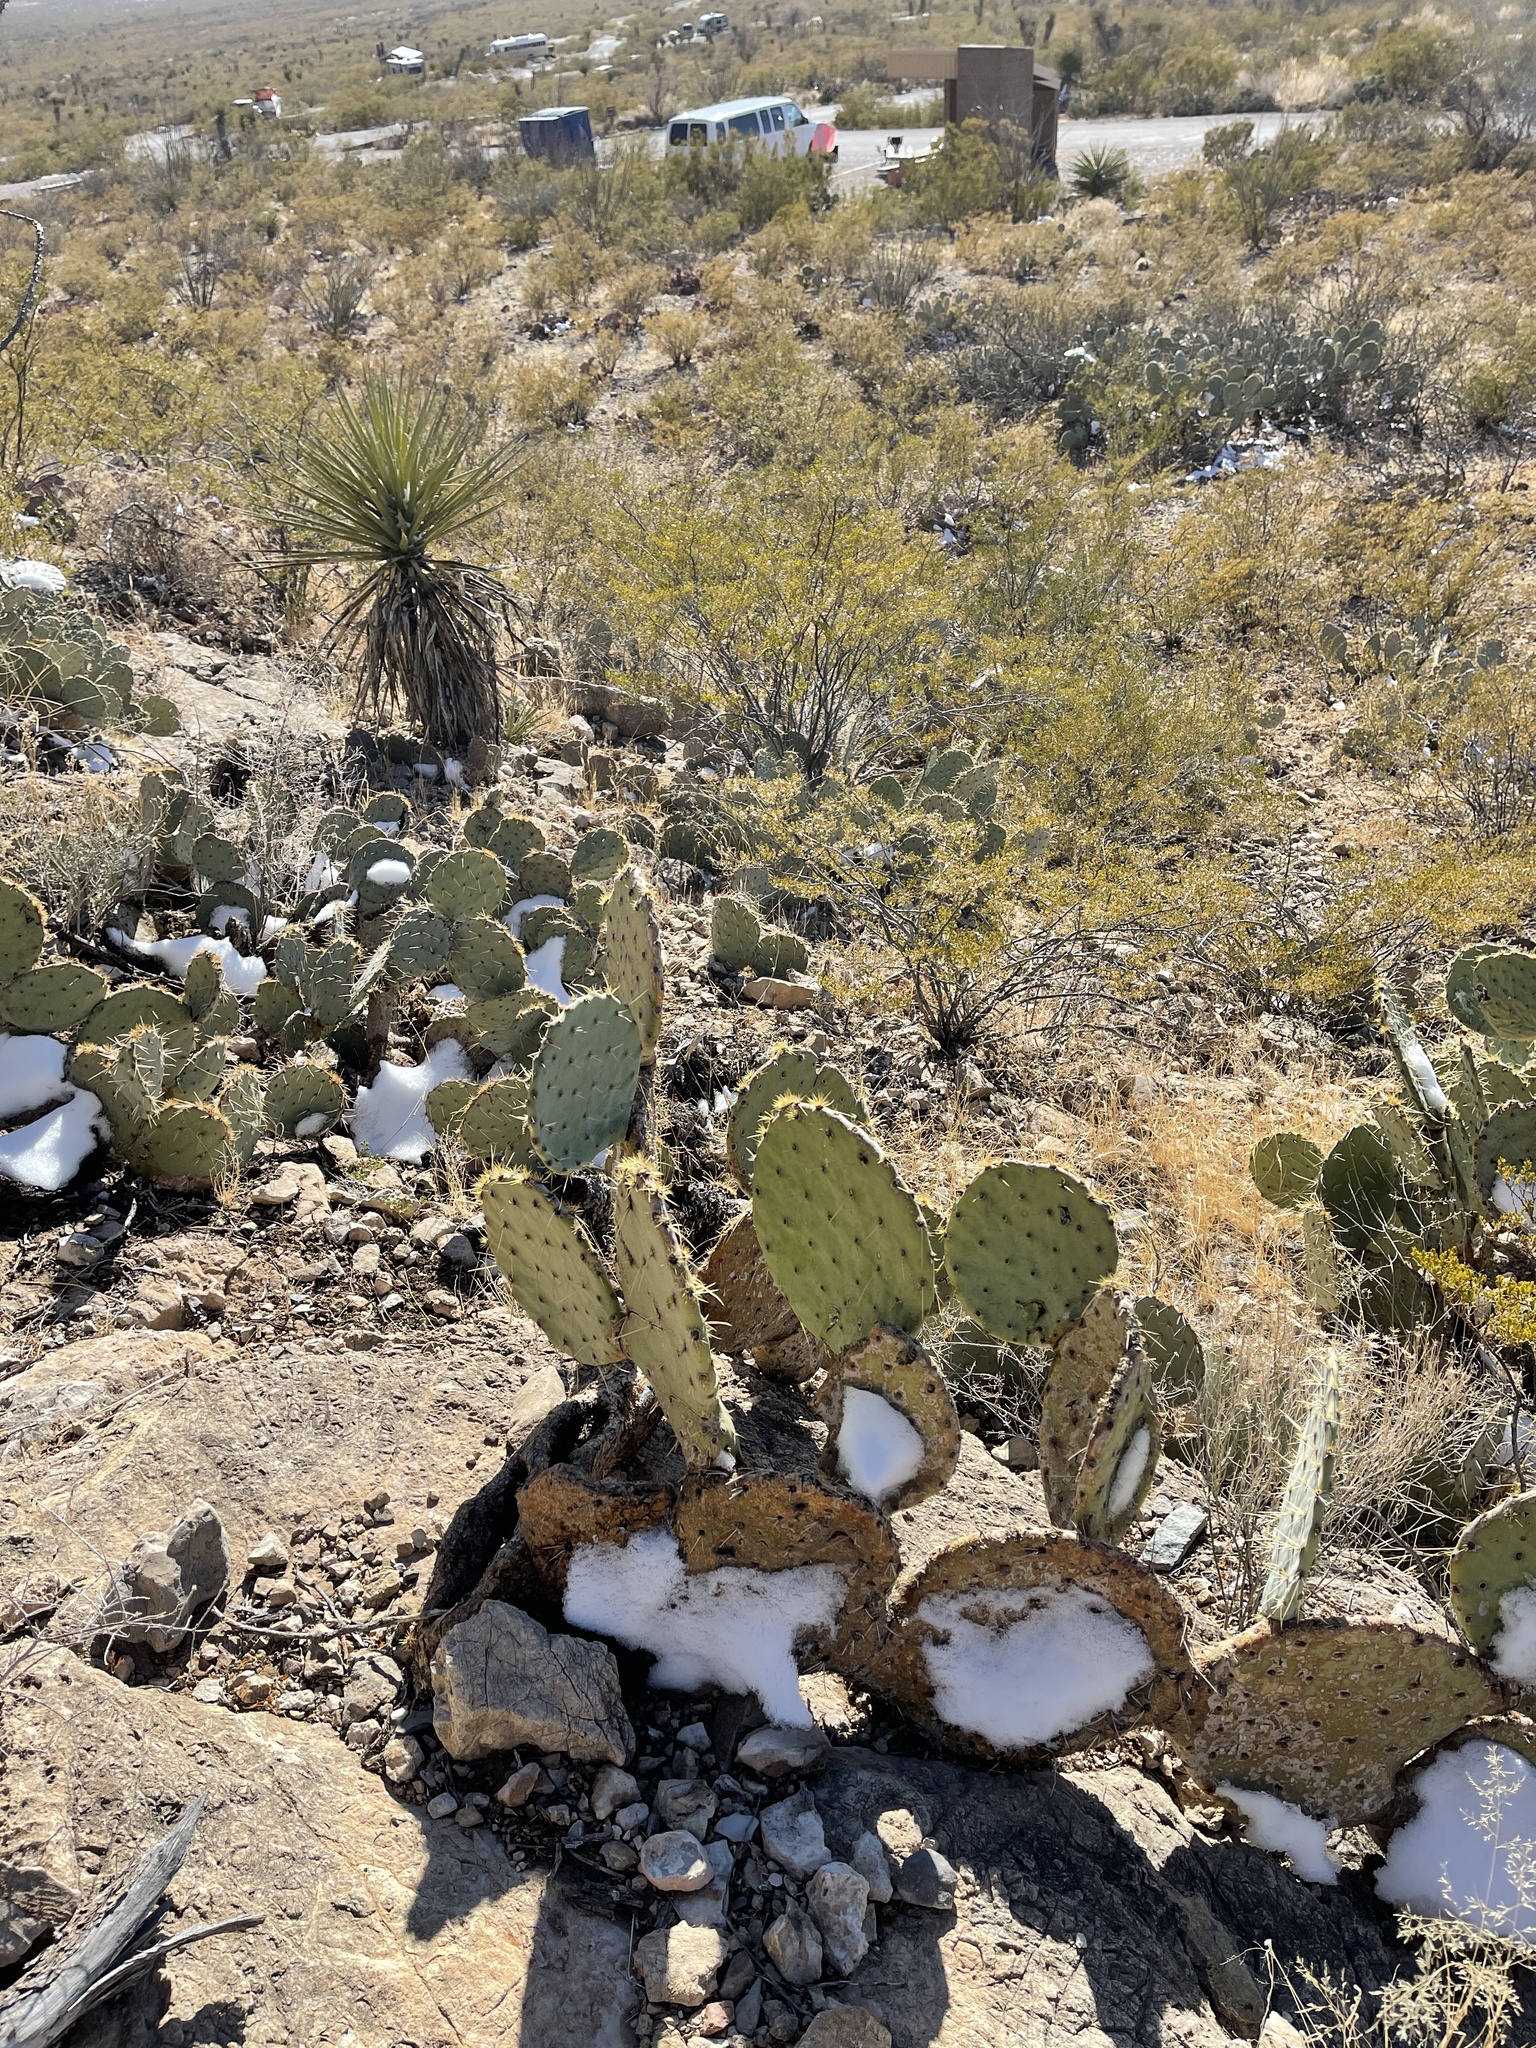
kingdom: Plantae
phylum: Tracheophyta
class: Magnoliopsida
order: Caryophyllales
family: Cactaceae
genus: Opuntia
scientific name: Opuntia engelmannii
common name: Cactus-apple
